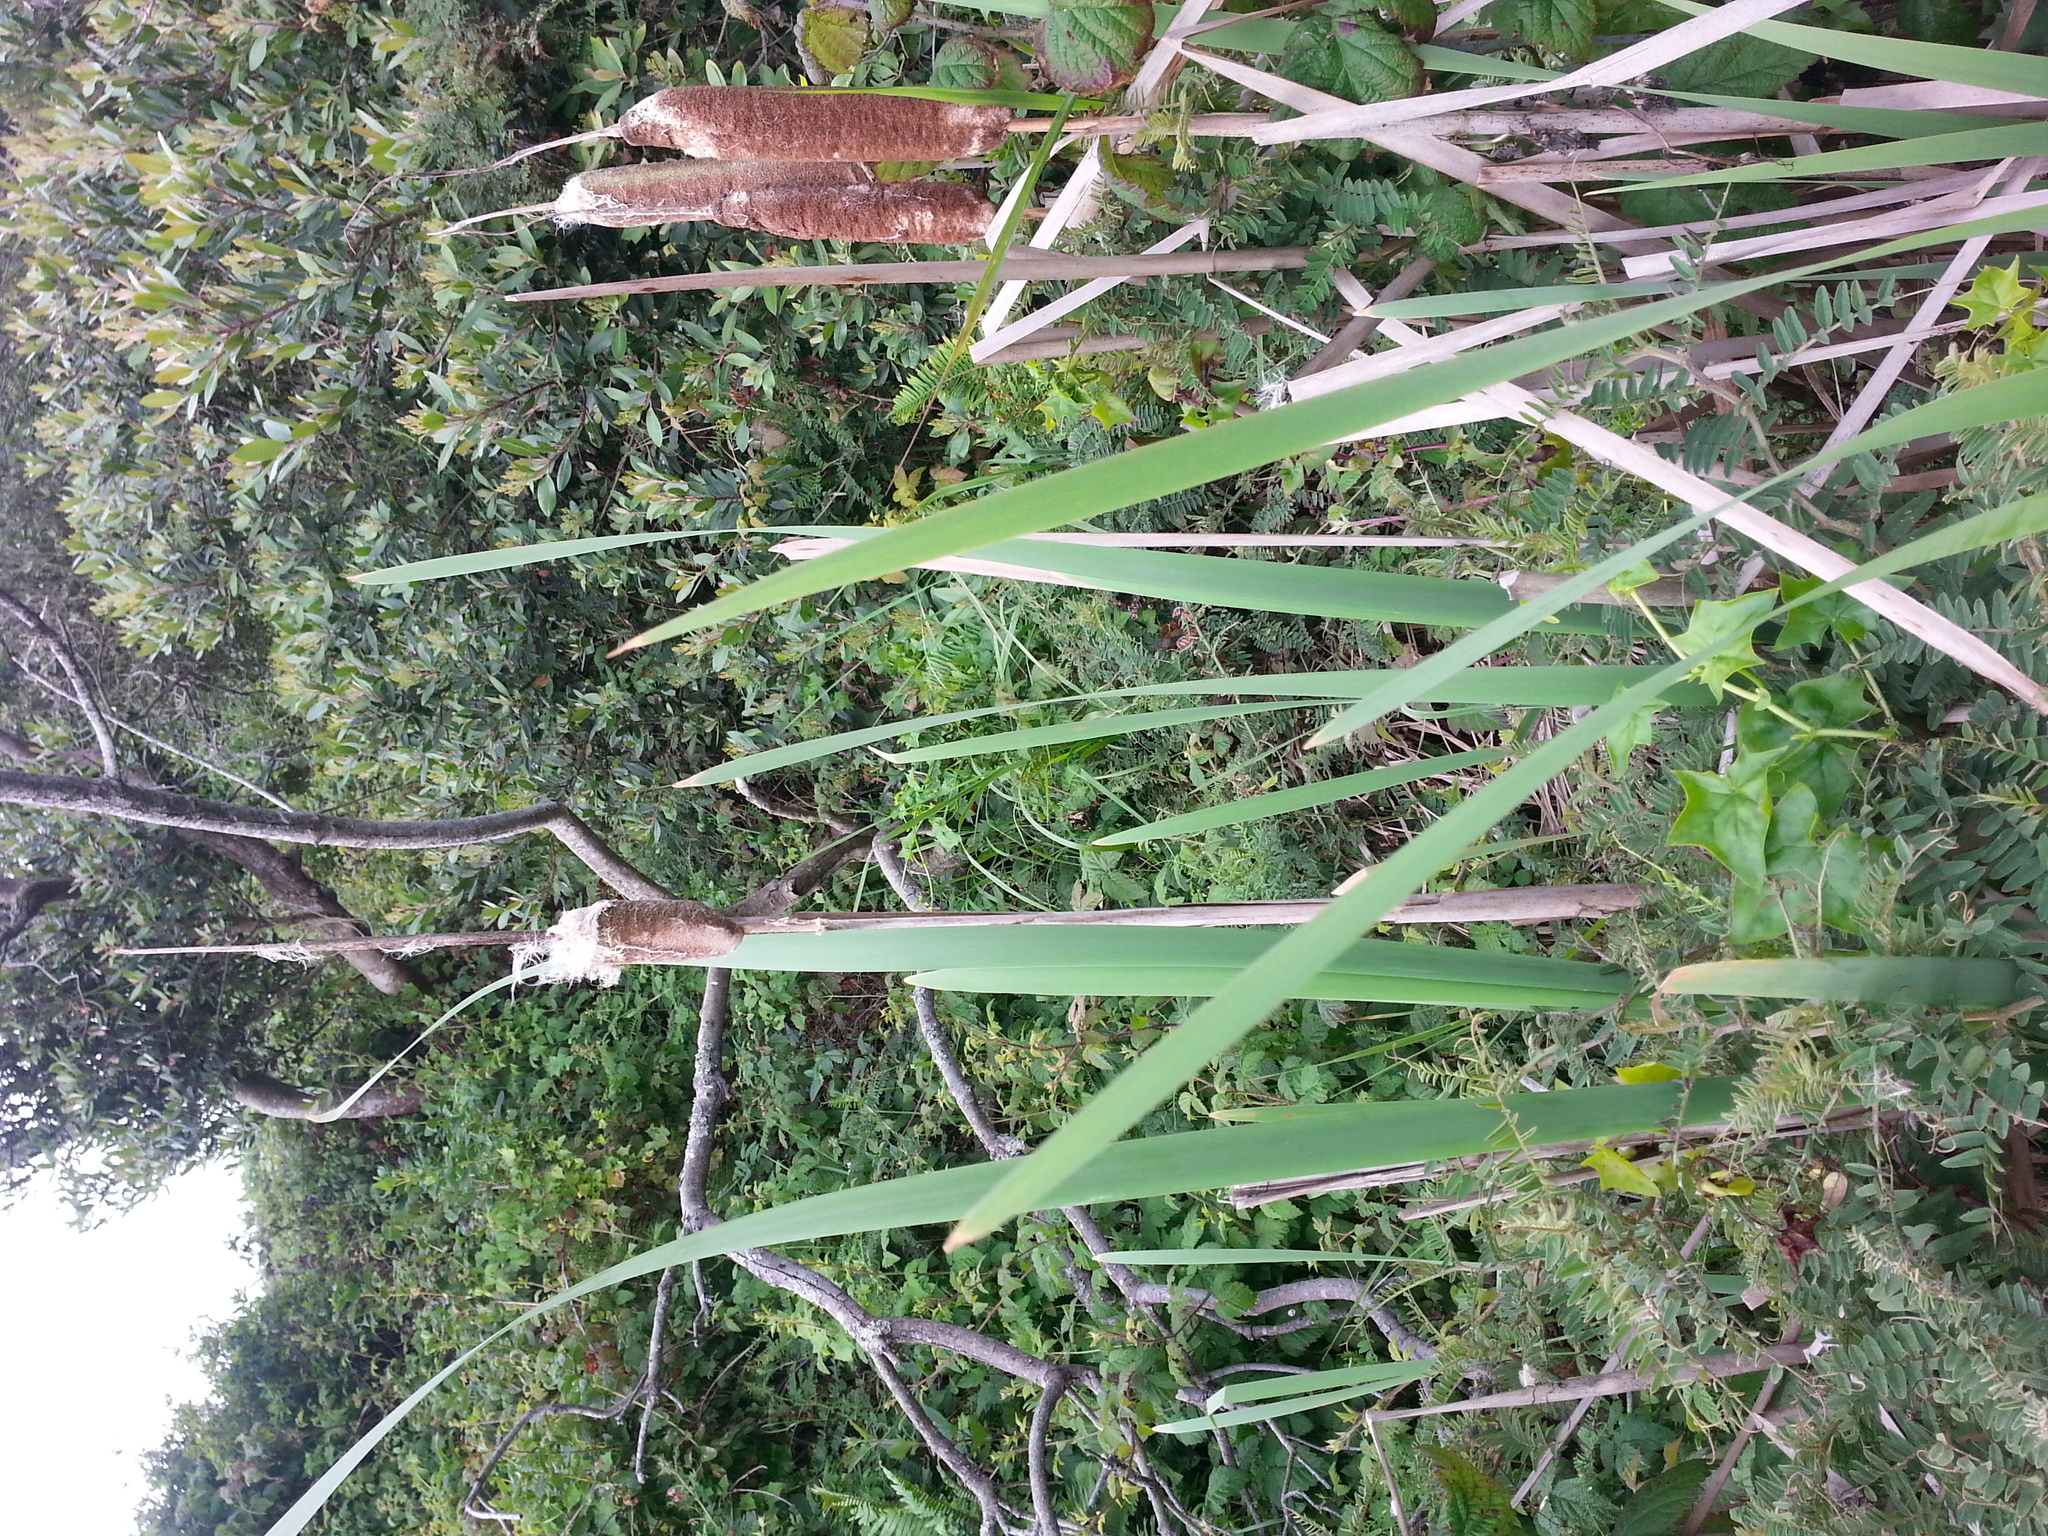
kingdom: Plantae
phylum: Tracheophyta
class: Liliopsida
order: Poales
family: Typhaceae
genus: Typha
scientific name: Typha latifolia
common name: Broadleaf cattail
